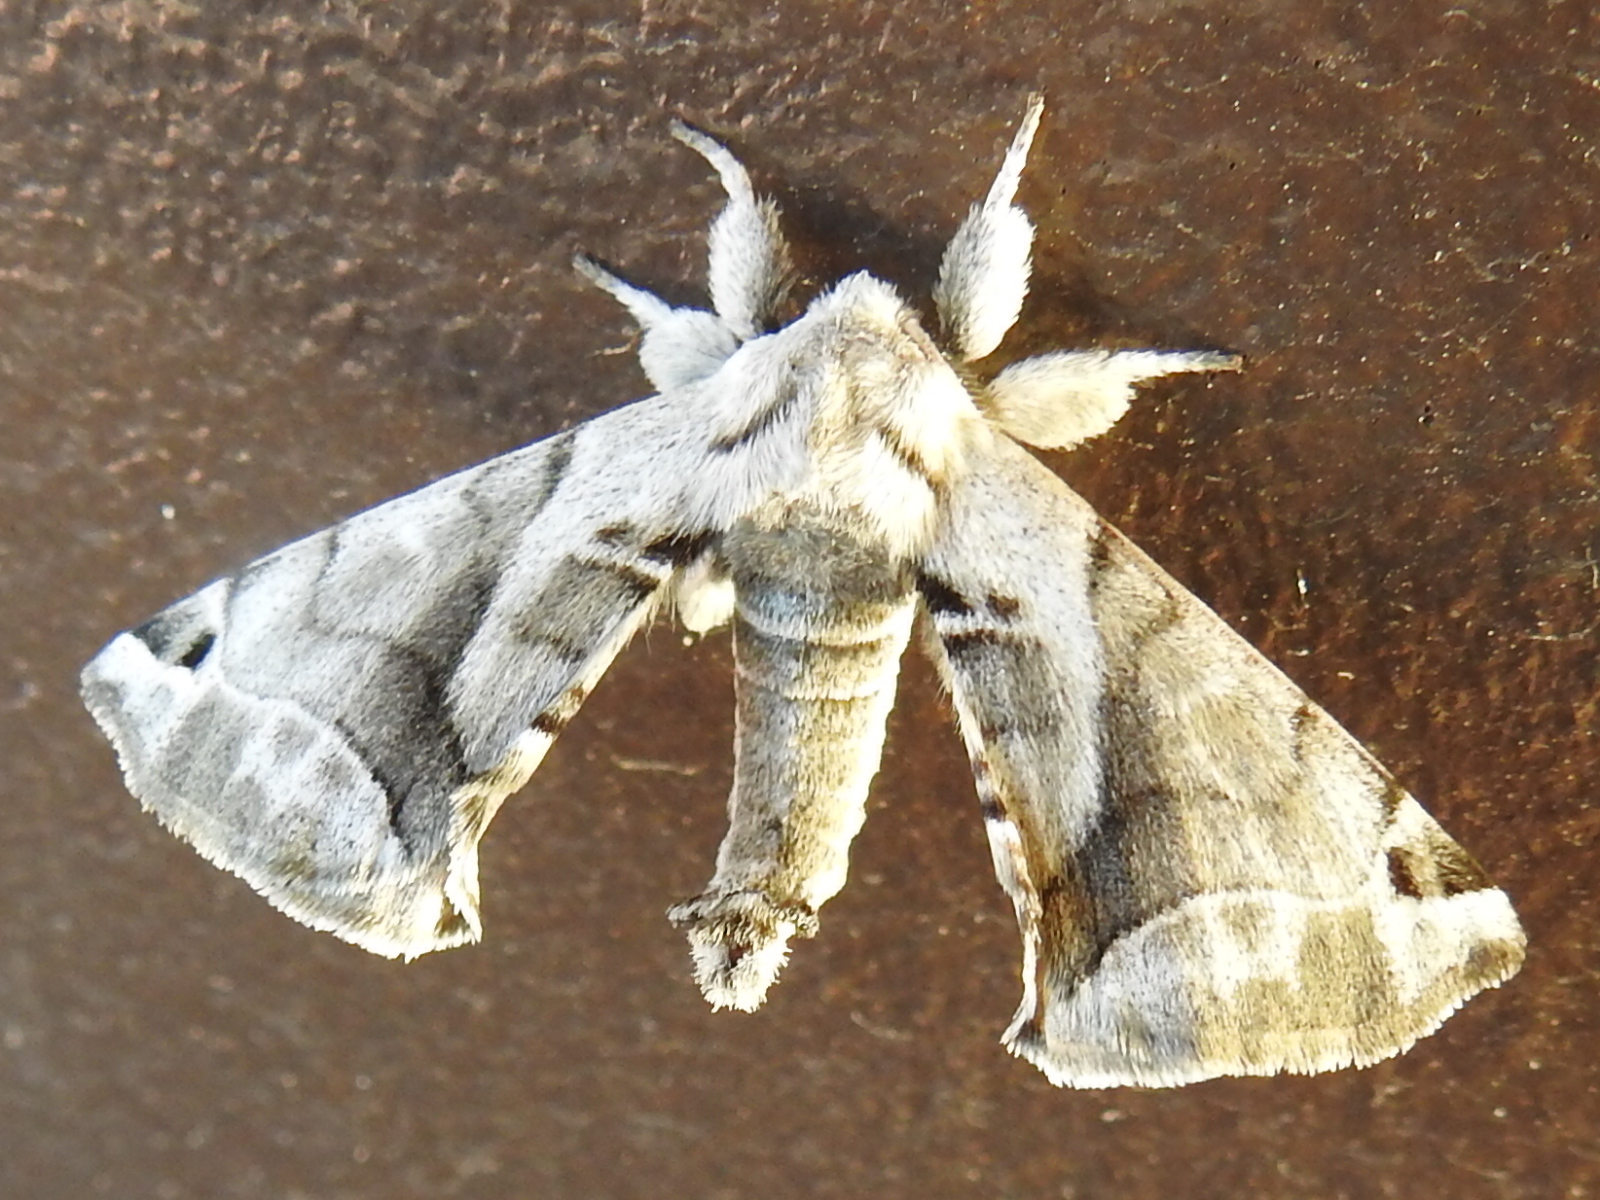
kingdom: Animalia
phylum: Arthropoda
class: Insecta
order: Lepidoptera
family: Apatelodidae
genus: Hygrochroa
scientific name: Hygrochroa Apatelodes pudefacta
